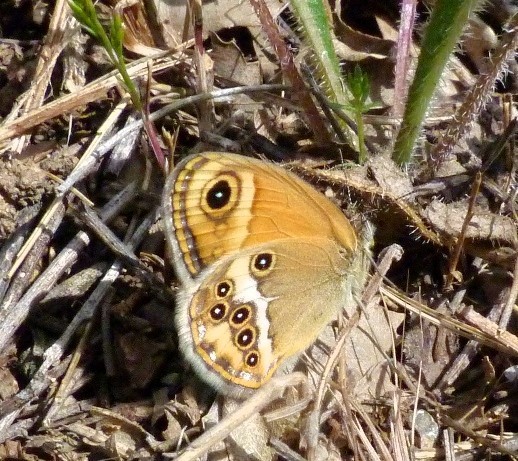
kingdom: Animalia
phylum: Arthropoda
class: Insecta
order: Lepidoptera
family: Nymphalidae
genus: Coenonympha
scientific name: Coenonympha dorus
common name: Dusky heath
